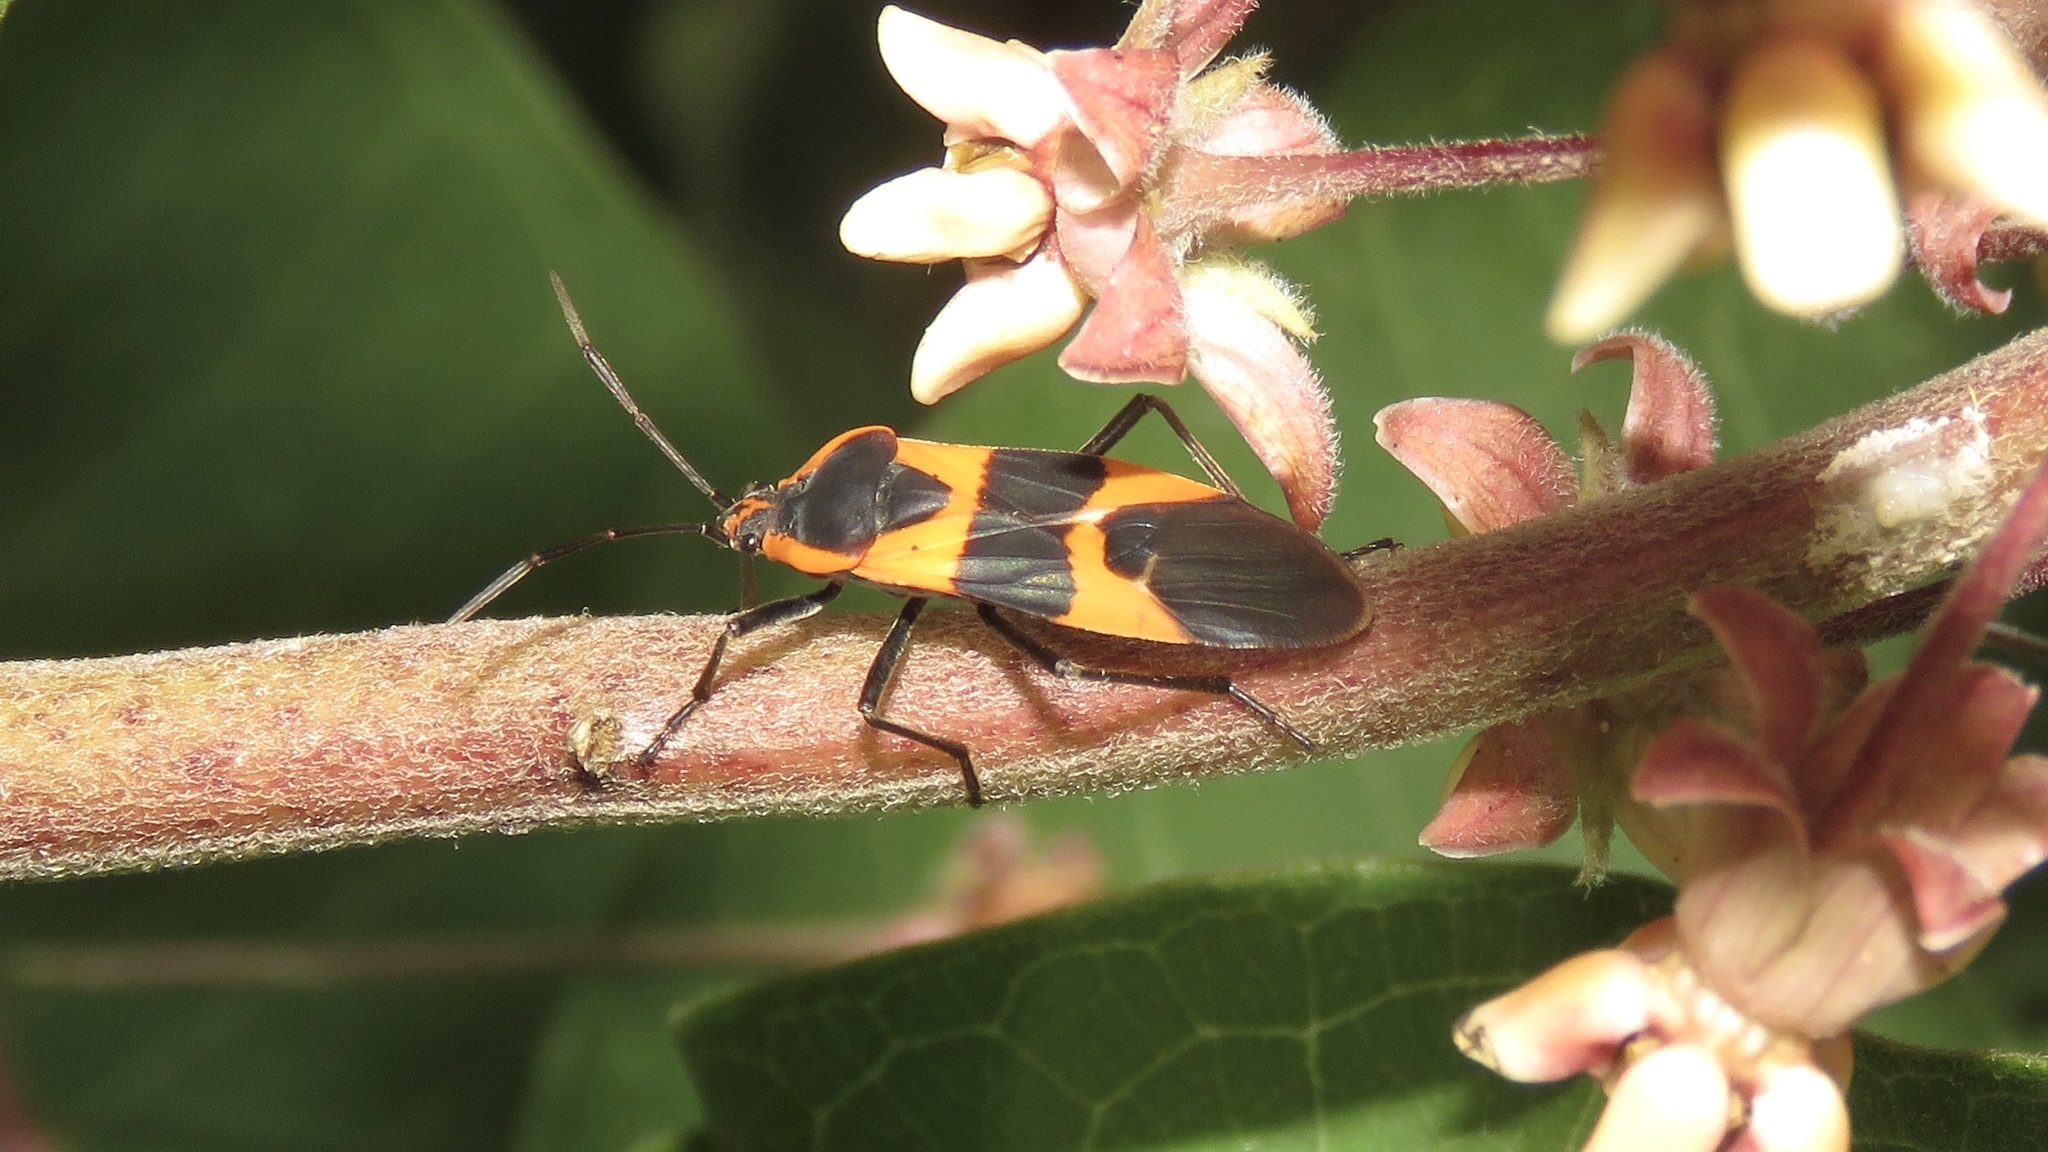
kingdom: Animalia
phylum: Arthropoda
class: Insecta
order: Hemiptera
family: Lygaeidae
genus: Oncopeltus
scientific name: Oncopeltus fasciatus
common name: Large milkweed bug
